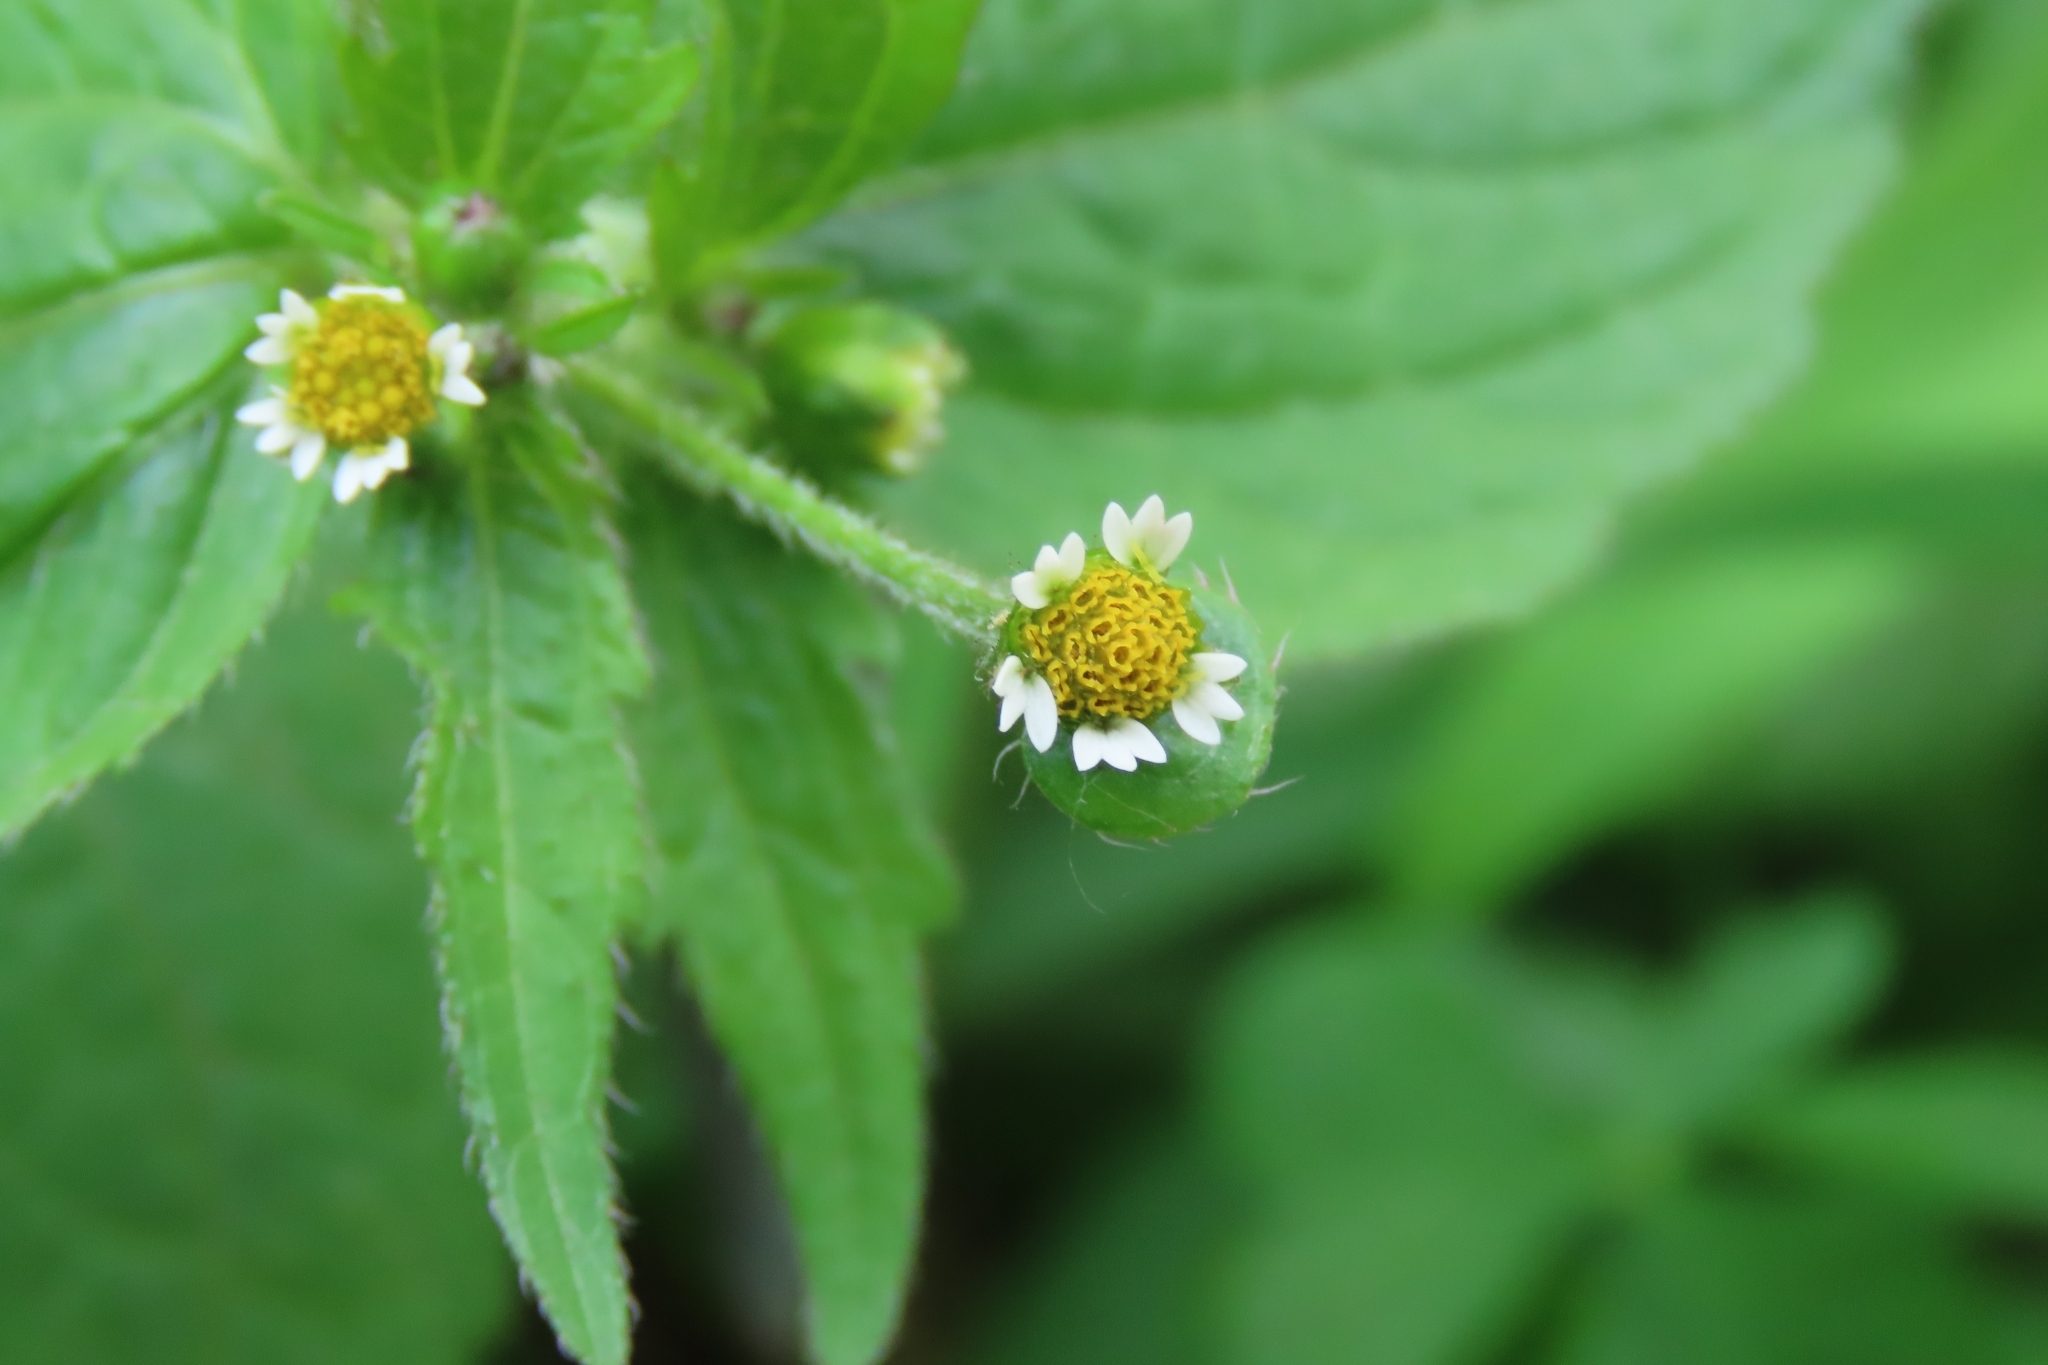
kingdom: Plantae
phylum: Tracheophyta
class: Magnoliopsida
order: Asterales
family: Asteraceae
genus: Galinsoga
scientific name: Galinsoga quadriradiata
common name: Shaggy soldier
